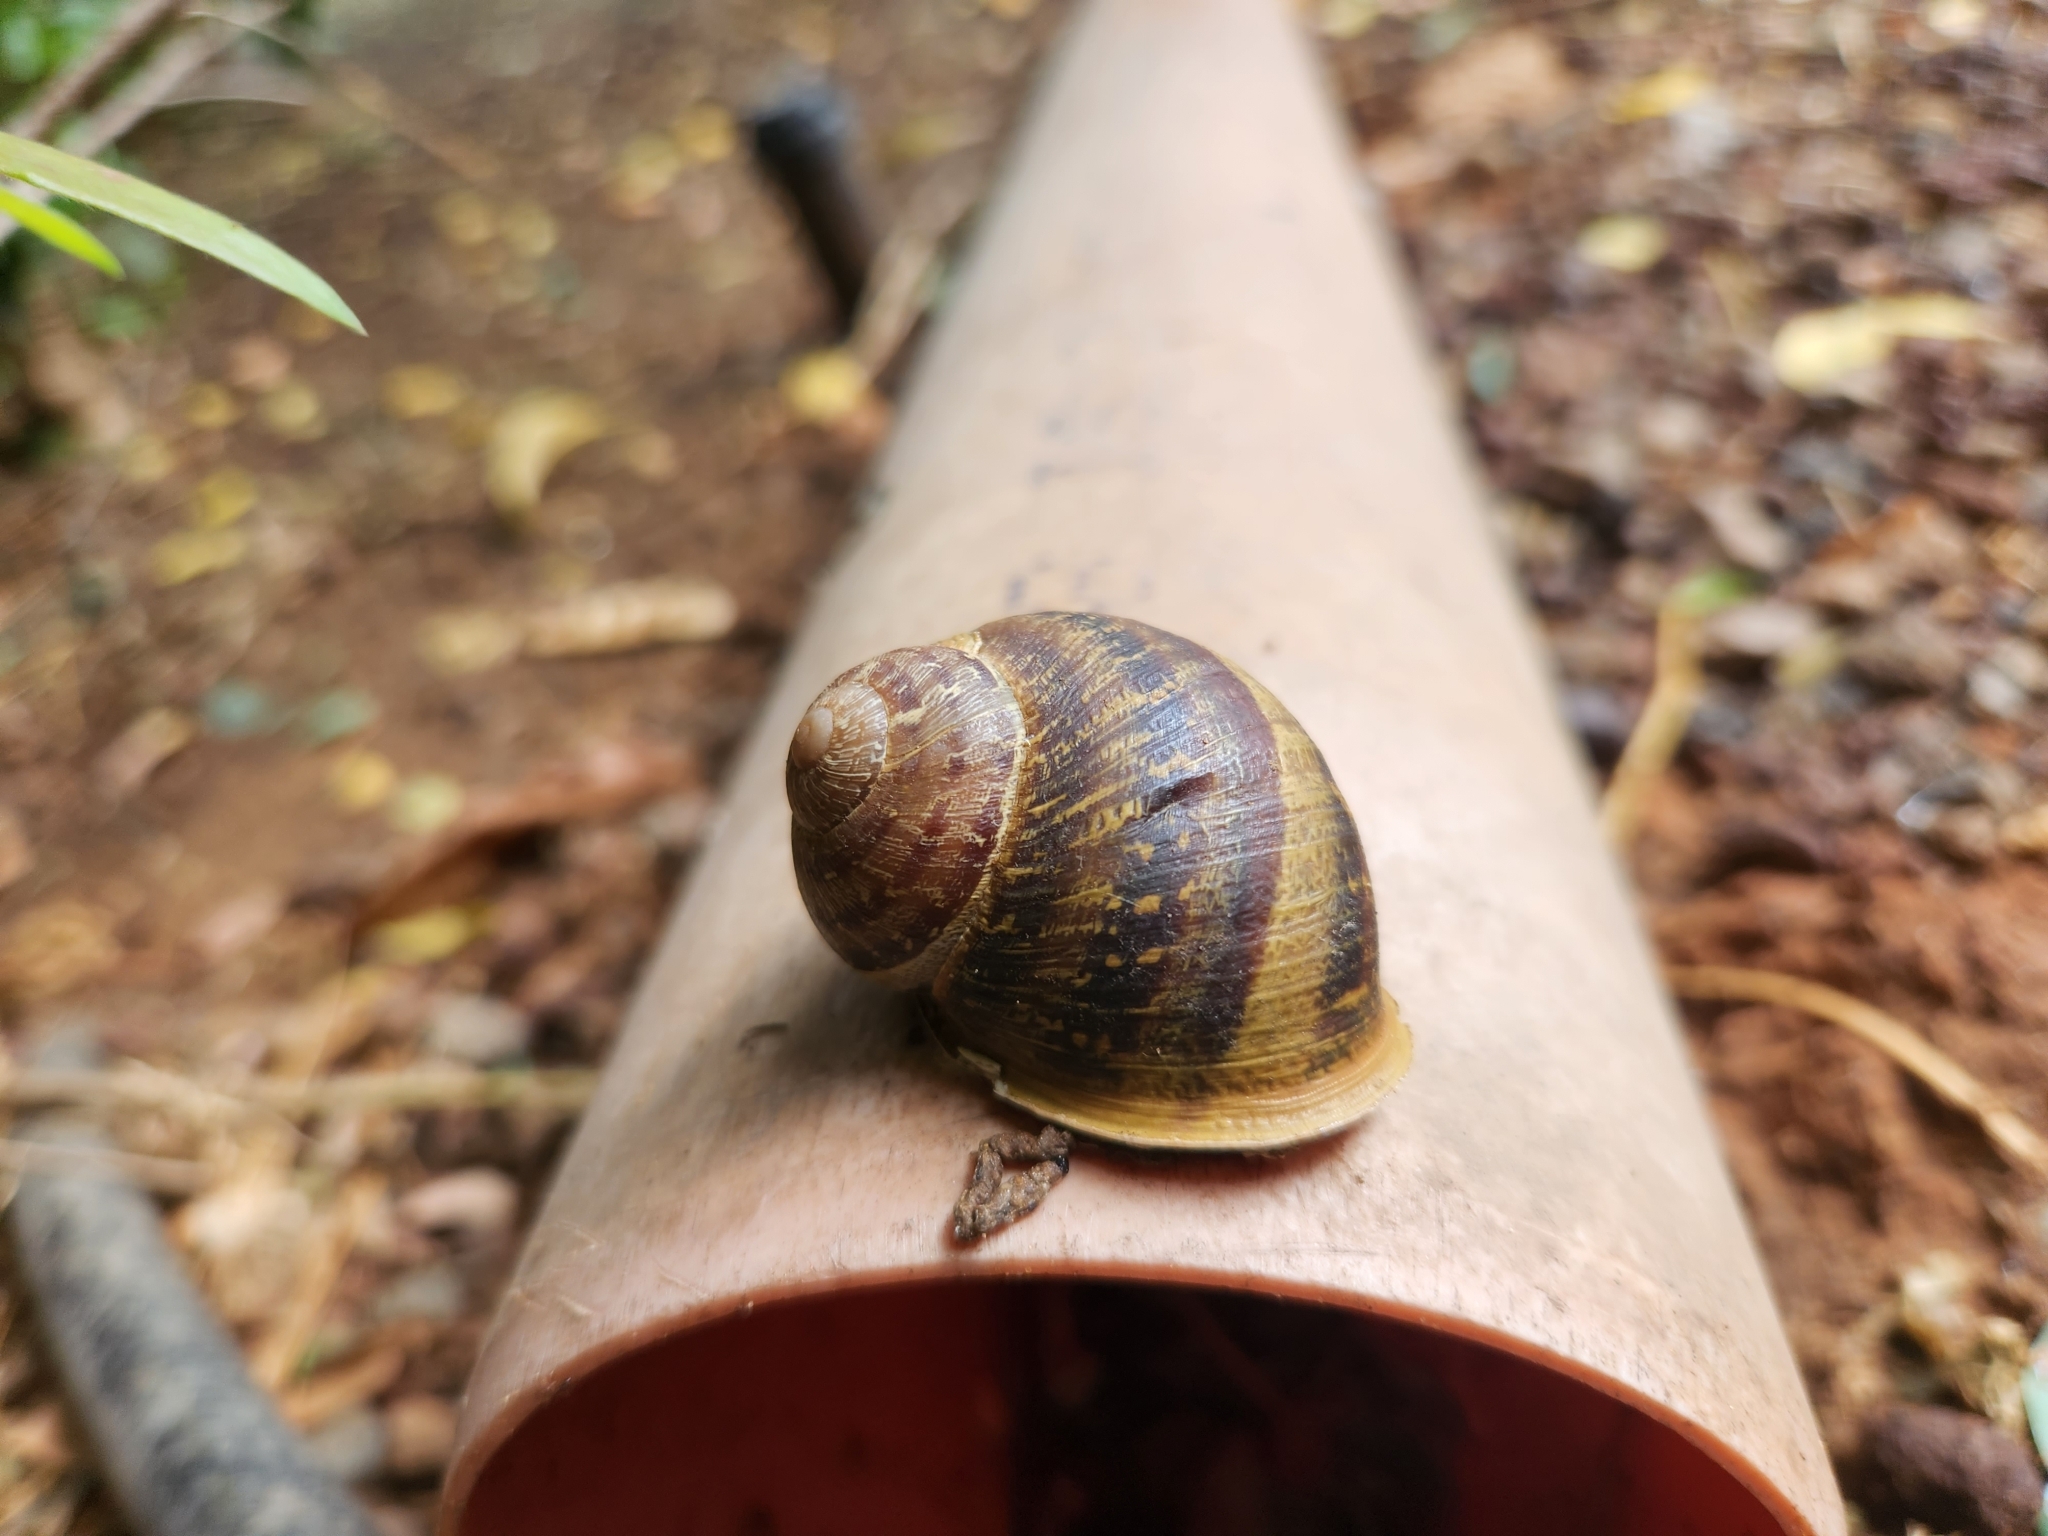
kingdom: Animalia
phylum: Mollusca
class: Gastropoda
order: Stylommatophora
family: Helicidae
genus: Cornu
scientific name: Cornu aspersum
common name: Brown garden snail
